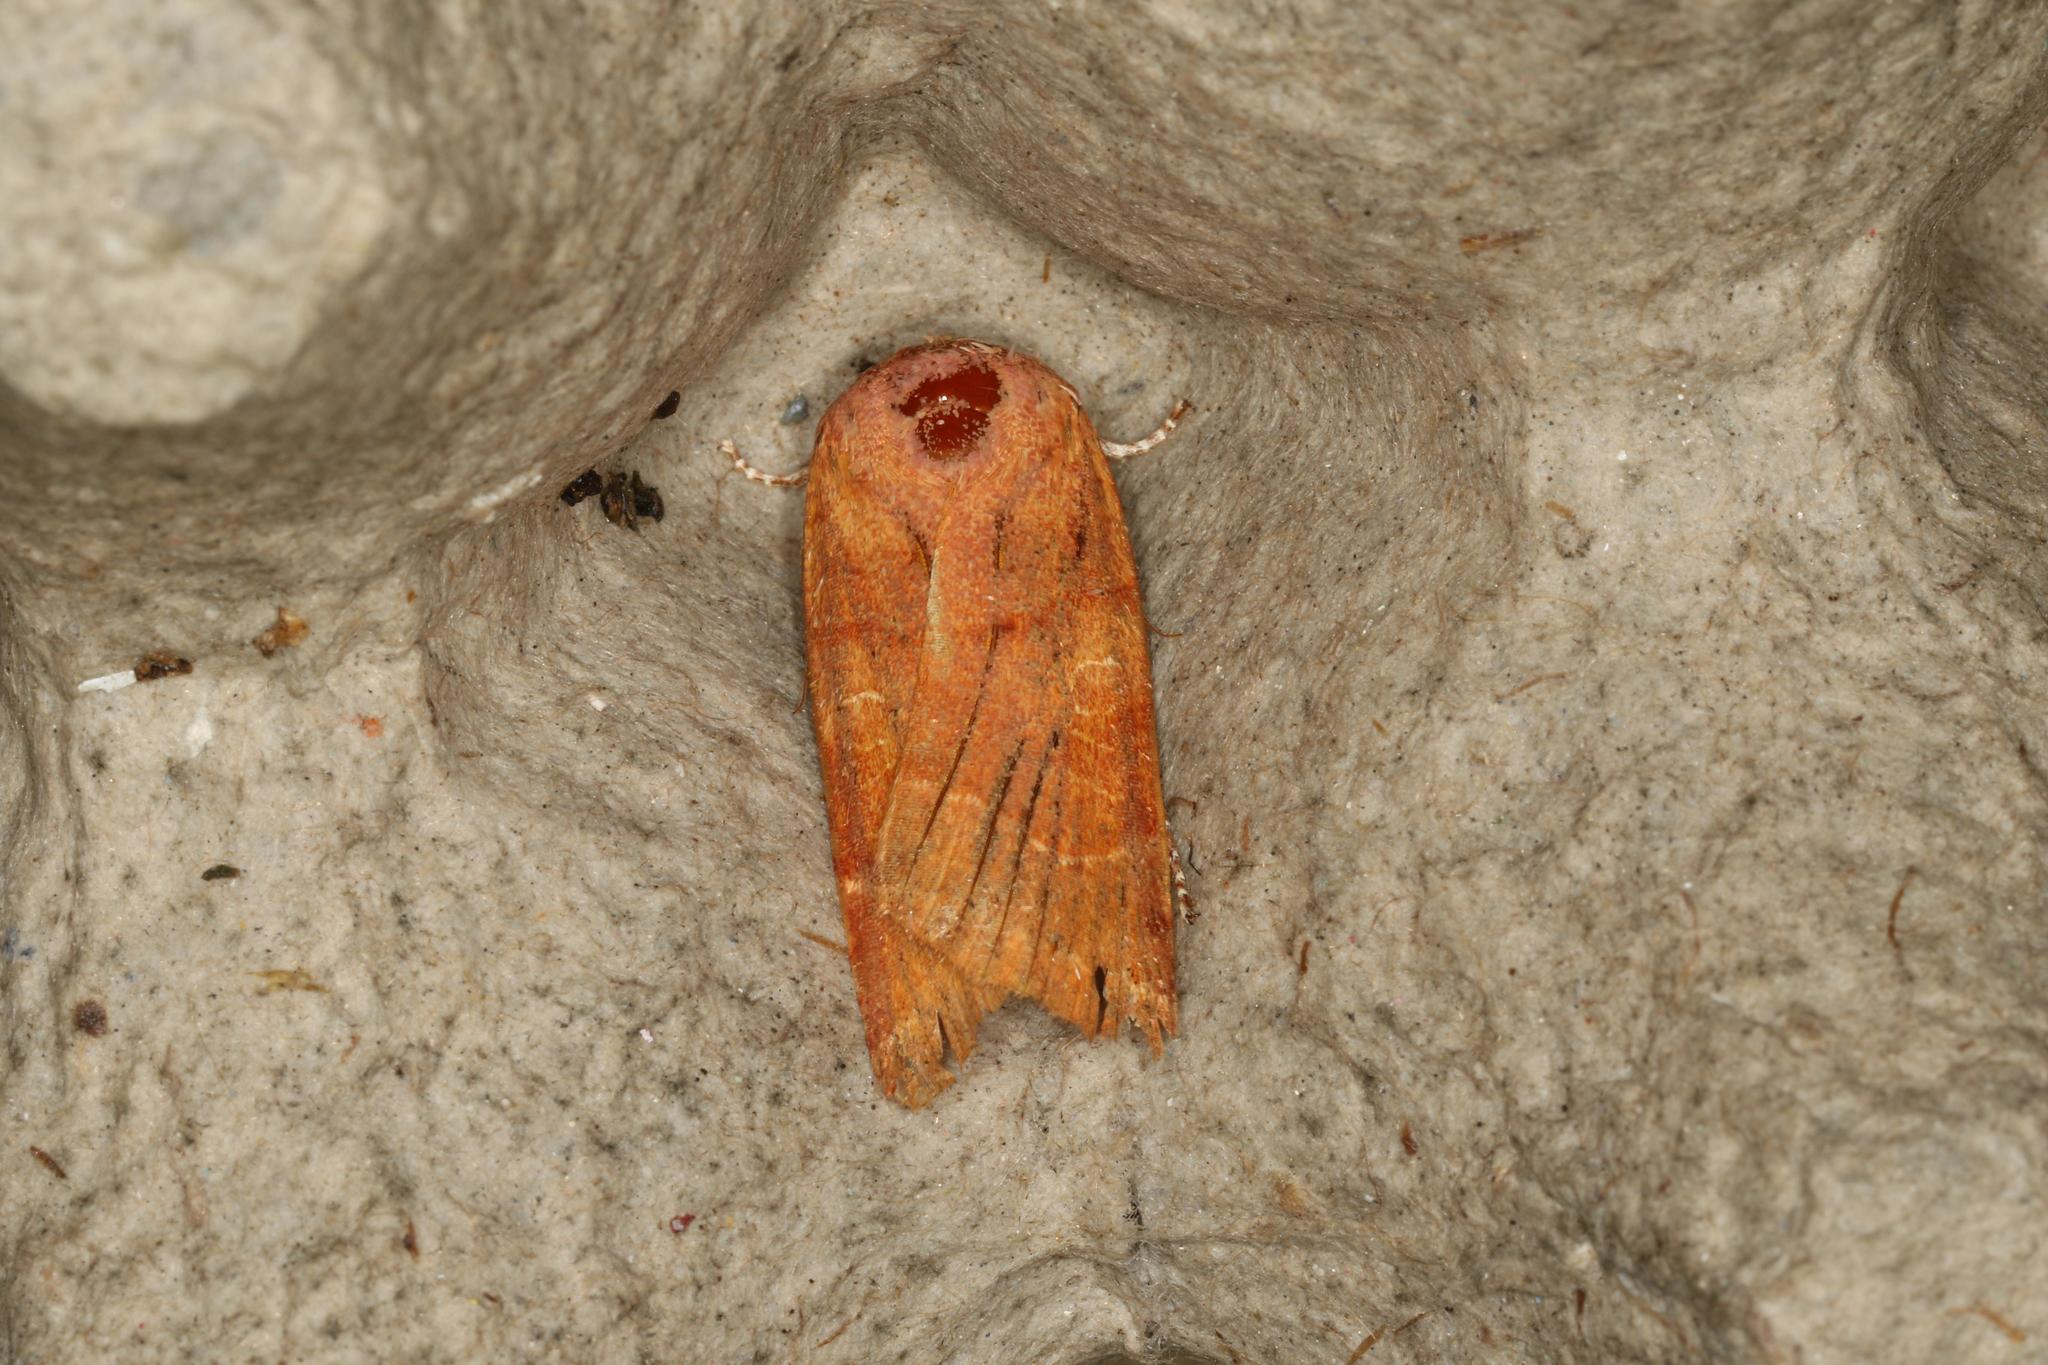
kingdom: Animalia
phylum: Arthropoda
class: Insecta
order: Lepidoptera
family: Noctuidae
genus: Noctua
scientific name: Noctua fimbriata
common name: Broad-bordered yellow underwing
